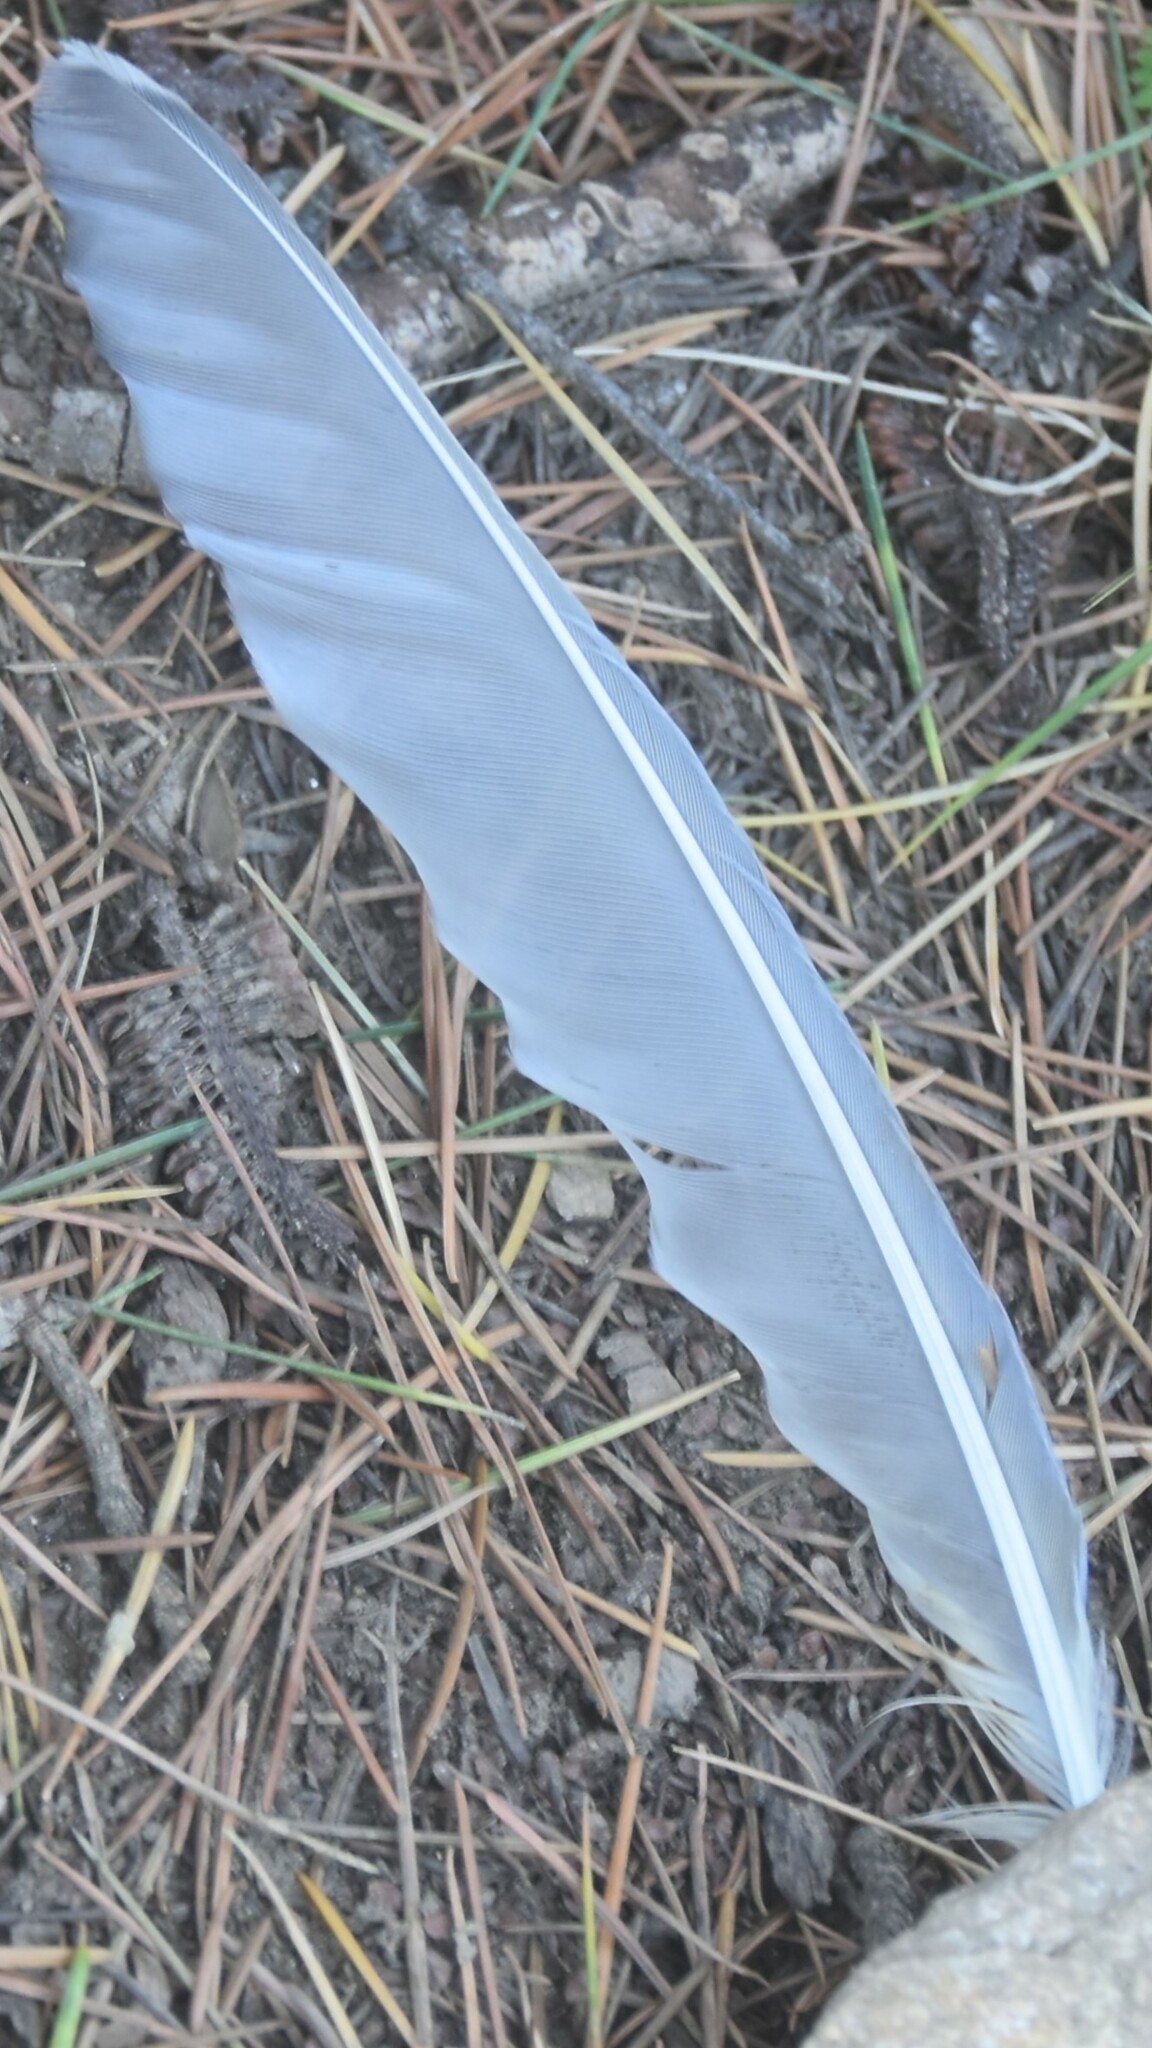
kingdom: Animalia
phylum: Chordata
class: Aves
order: Passeriformes
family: Corvidae
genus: Urocissa
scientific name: Urocissa flavirostris
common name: Yellow-billed blue magpie
